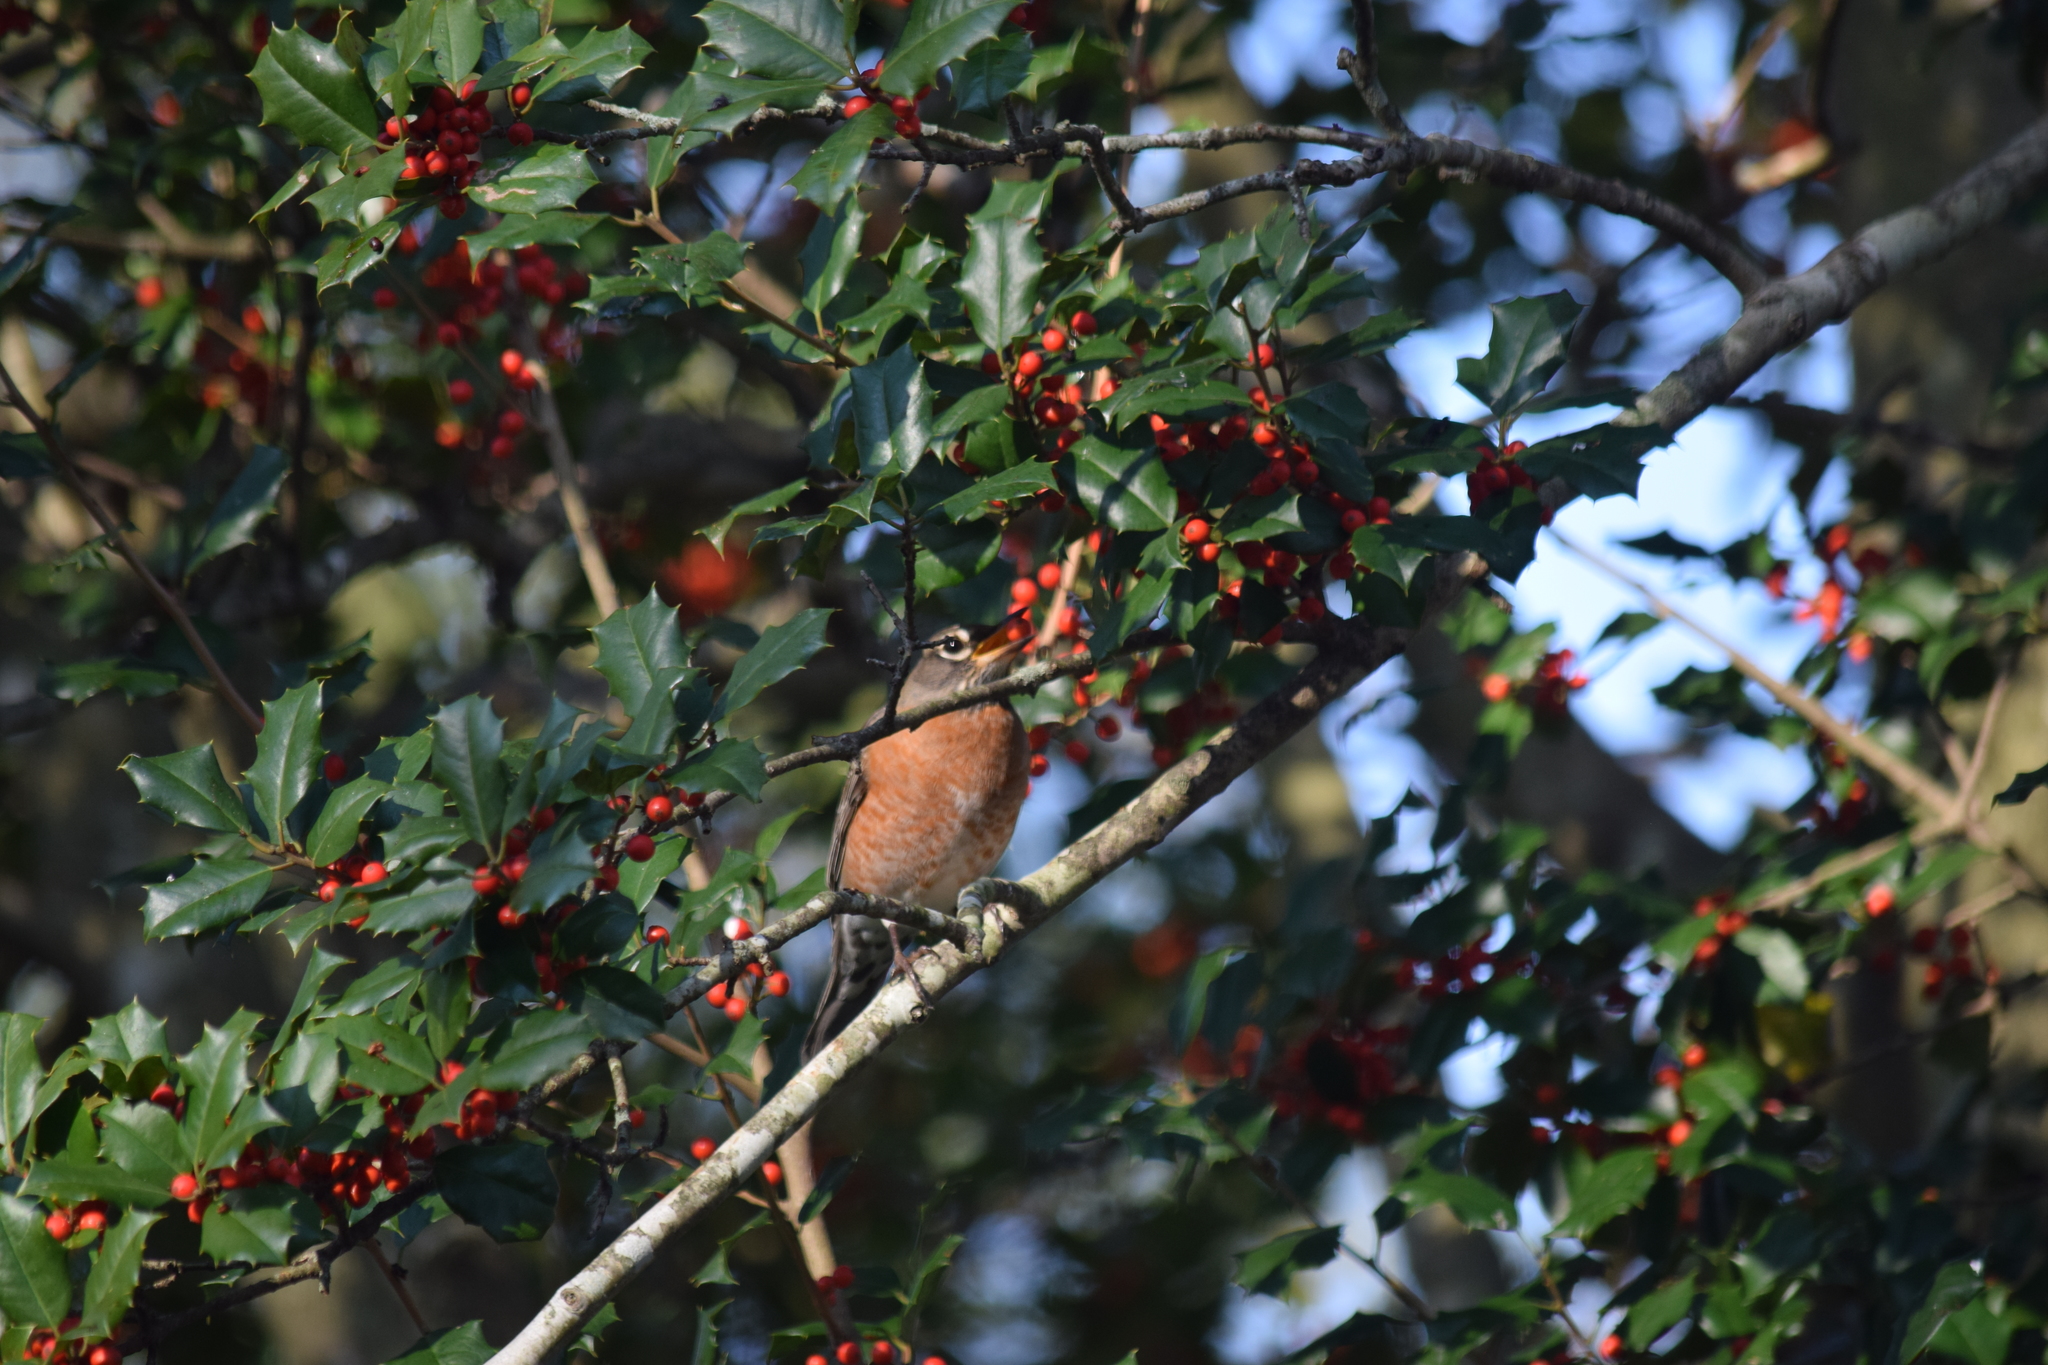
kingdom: Animalia
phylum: Chordata
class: Aves
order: Passeriformes
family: Turdidae
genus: Turdus
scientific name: Turdus migratorius
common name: American robin
